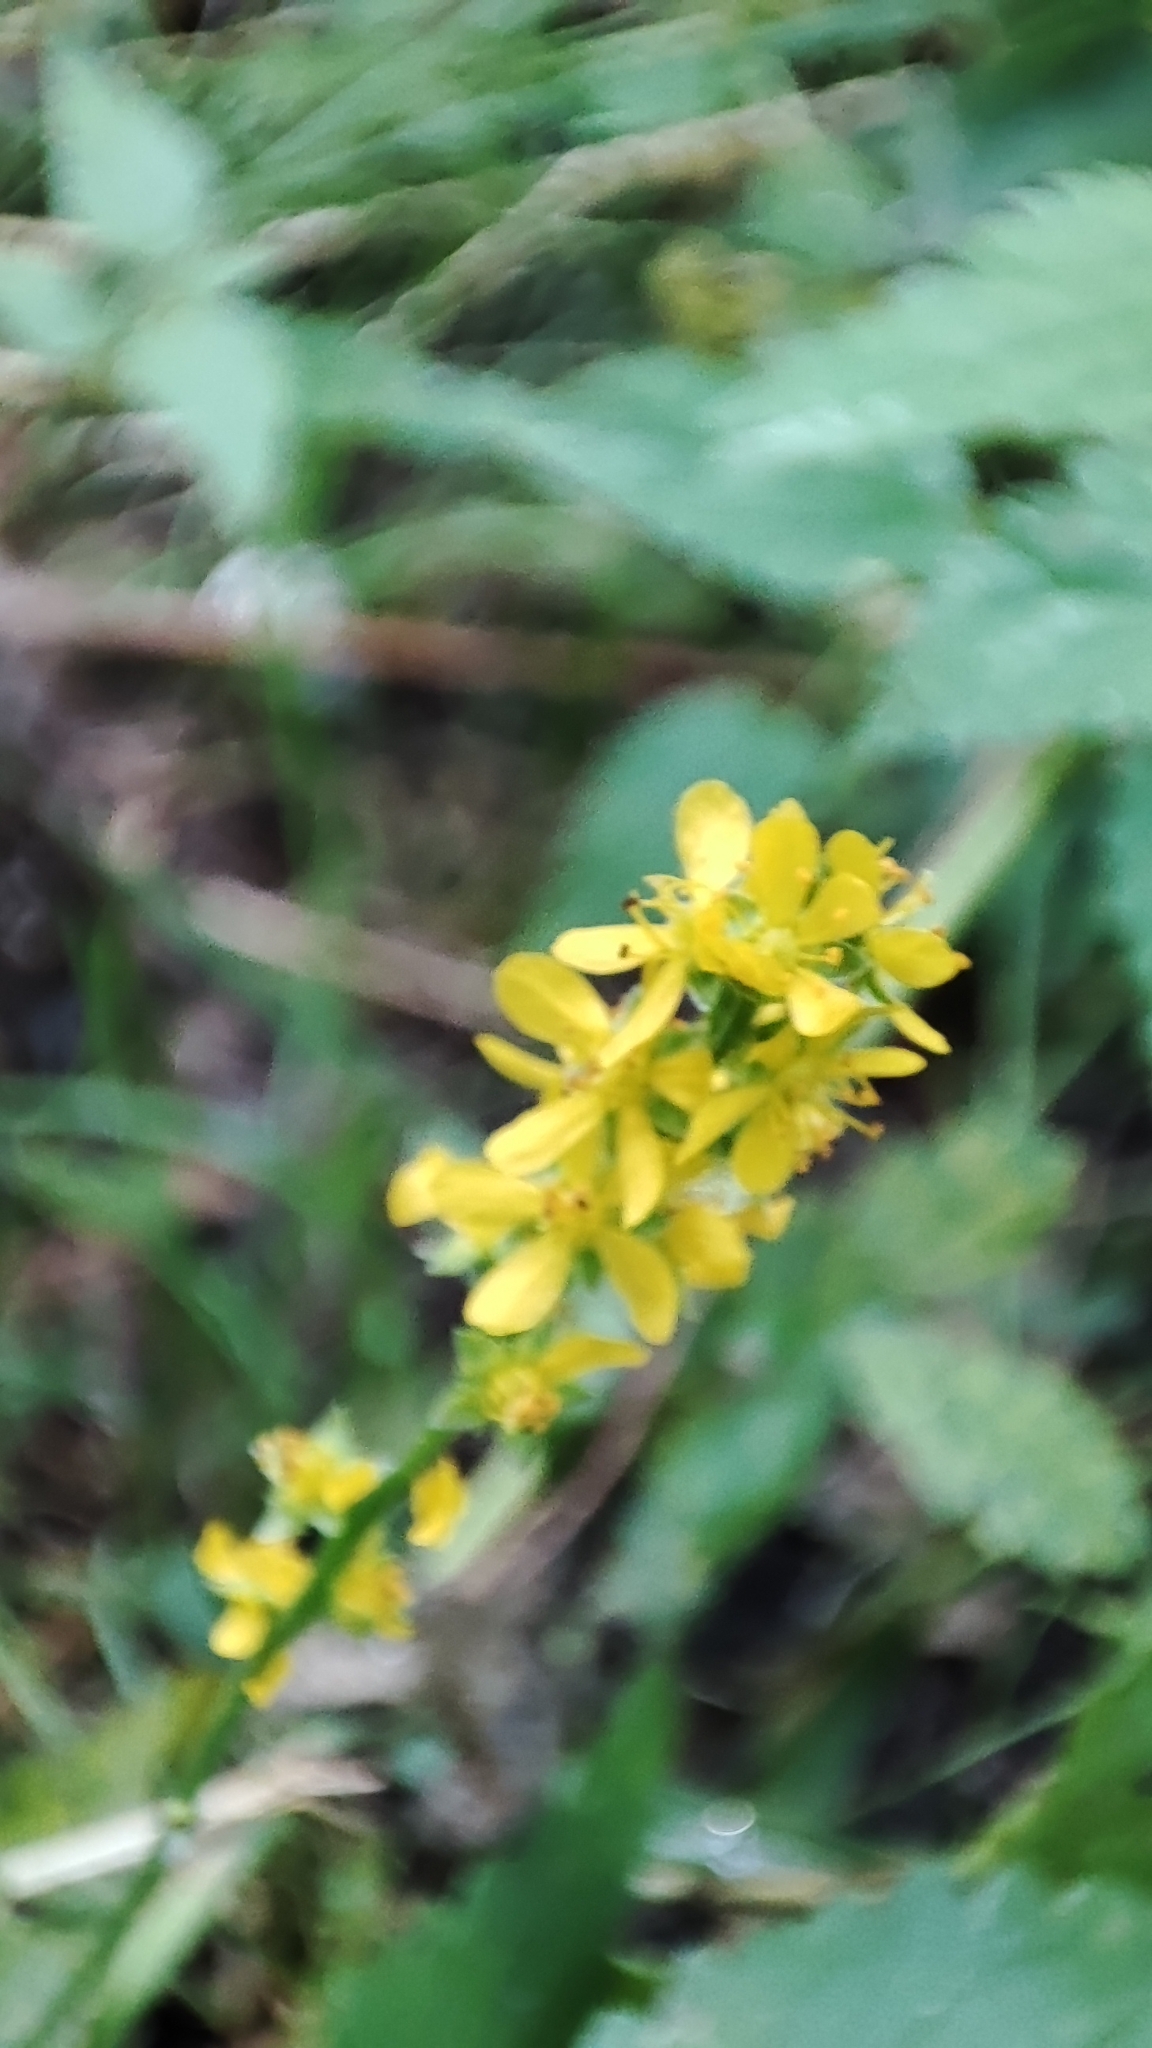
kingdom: Plantae
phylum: Tracheophyta
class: Magnoliopsida
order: Rosales
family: Rosaceae
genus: Agrimonia
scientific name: Agrimonia pilosa
